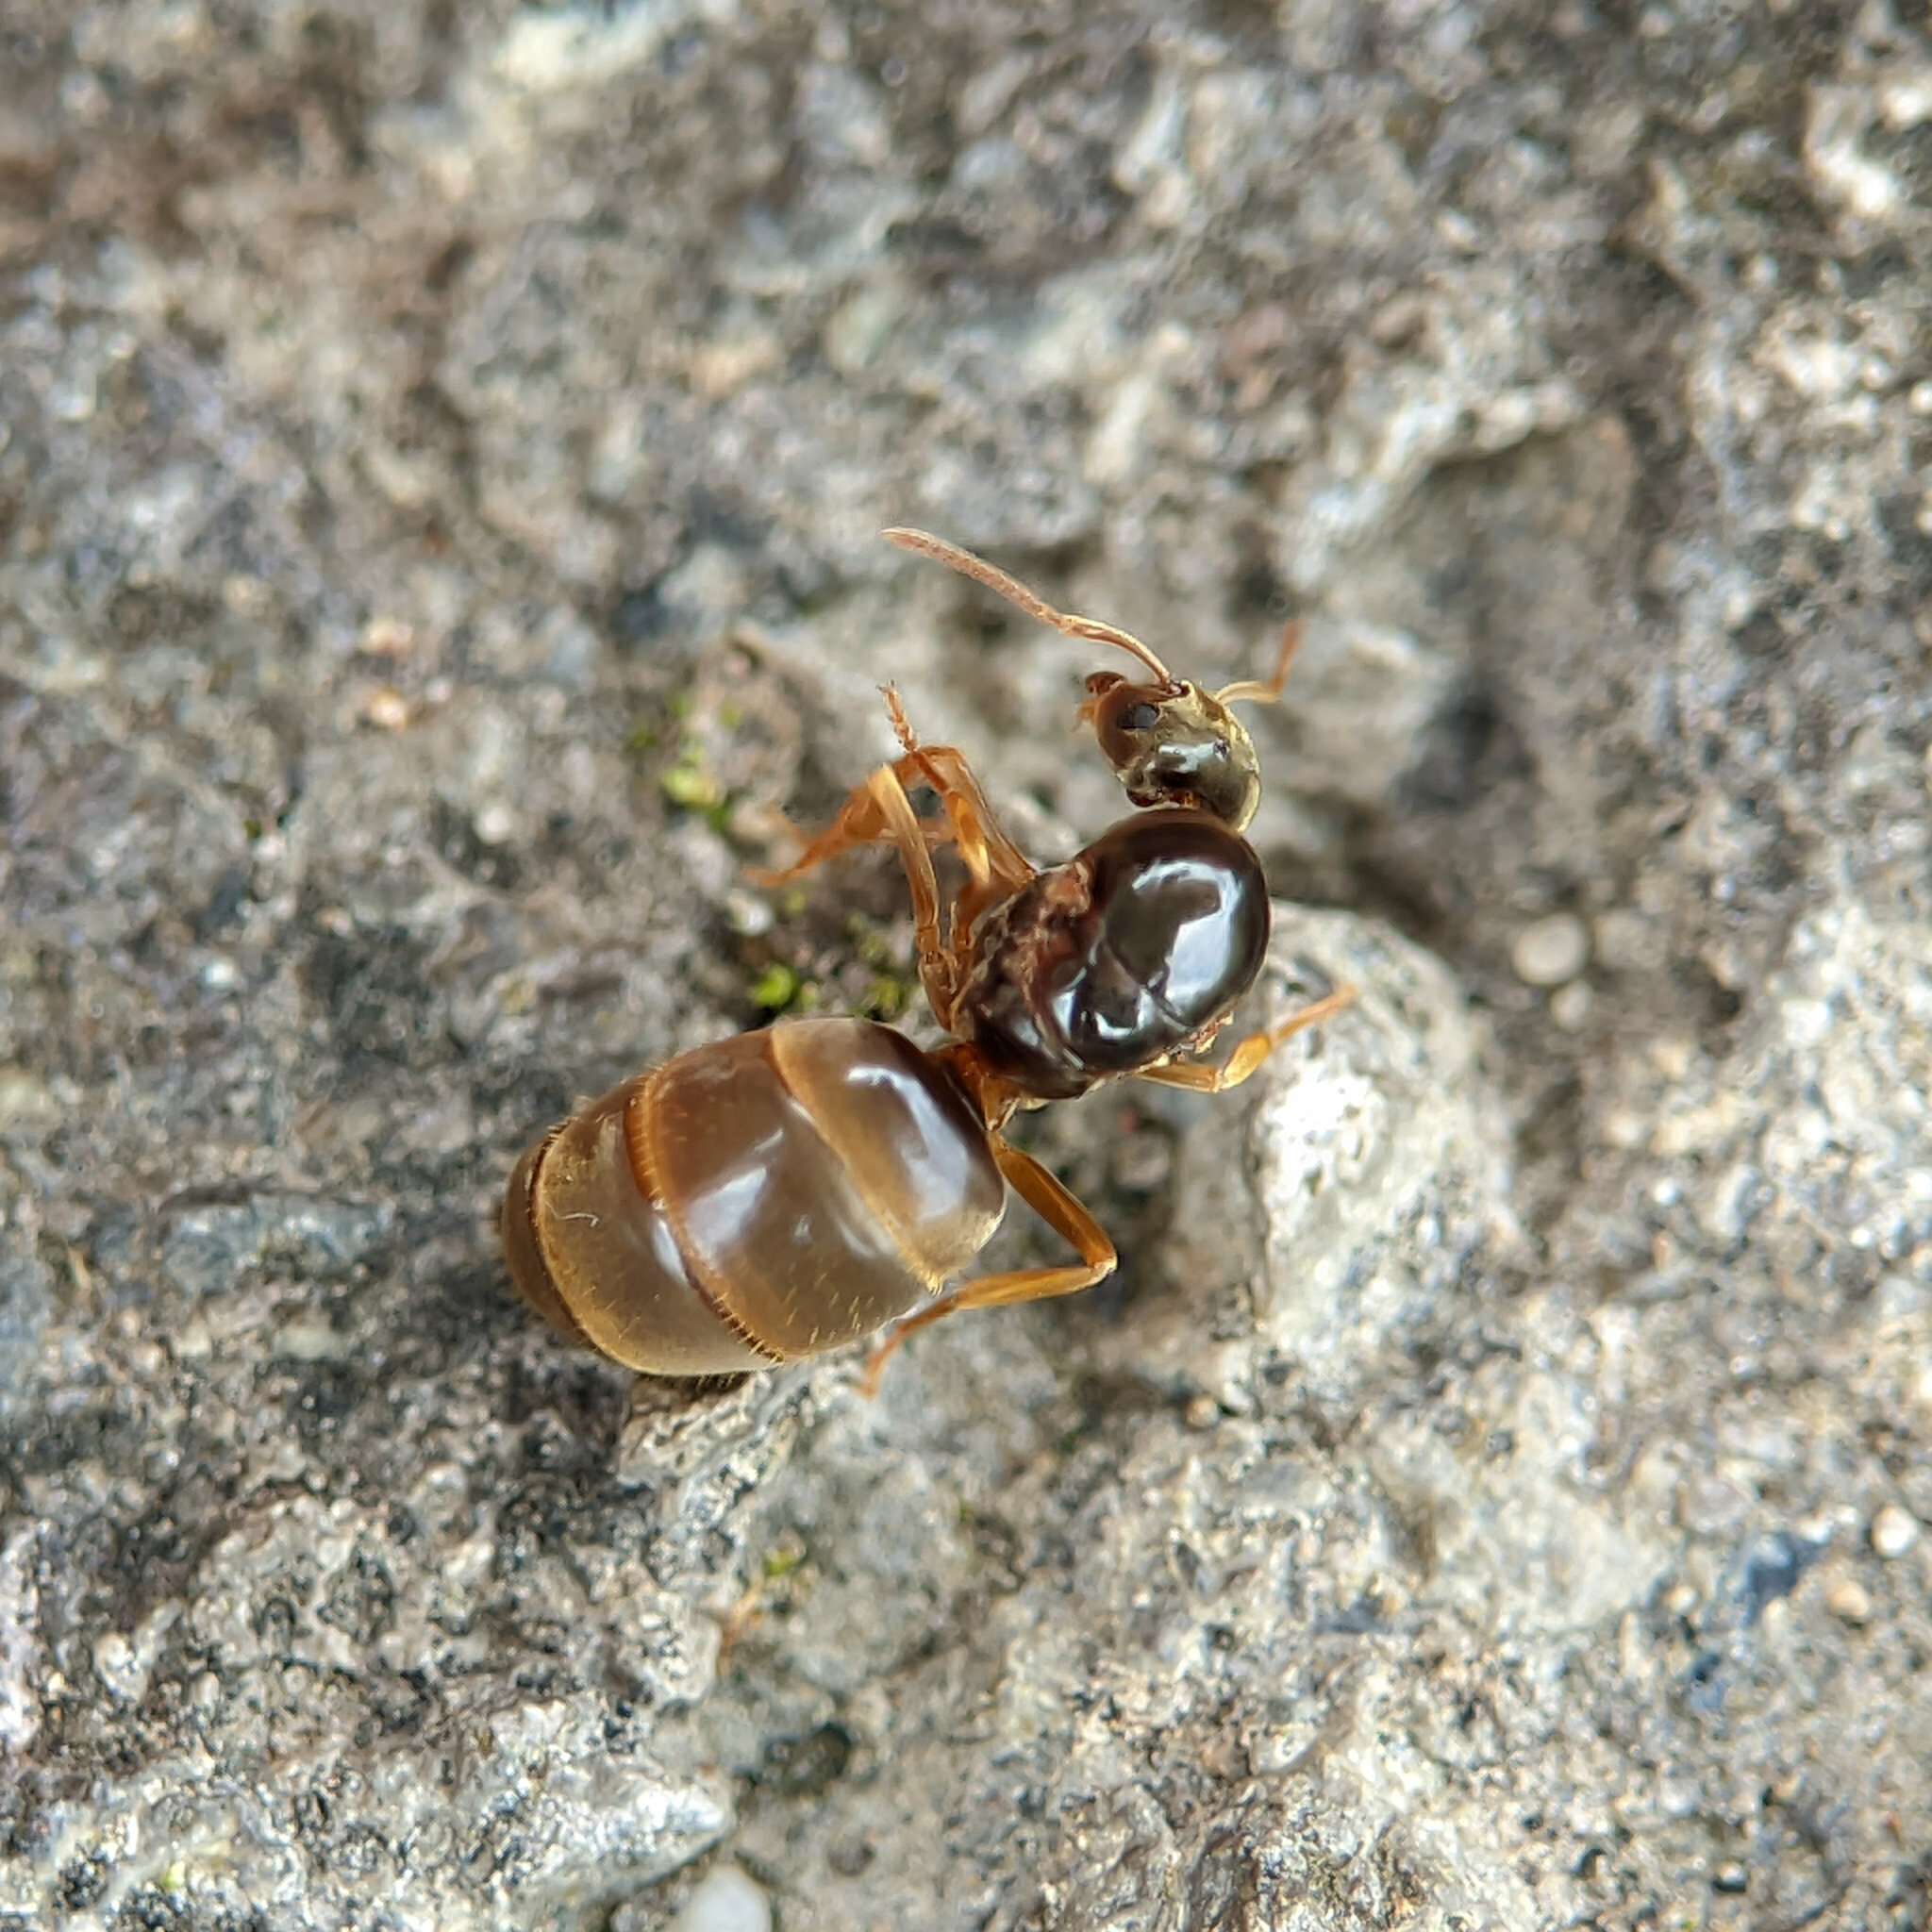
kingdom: Animalia
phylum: Arthropoda
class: Insecta
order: Hymenoptera
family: Formicidae
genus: Lasius
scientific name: Lasius flavus
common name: Blond field ant
